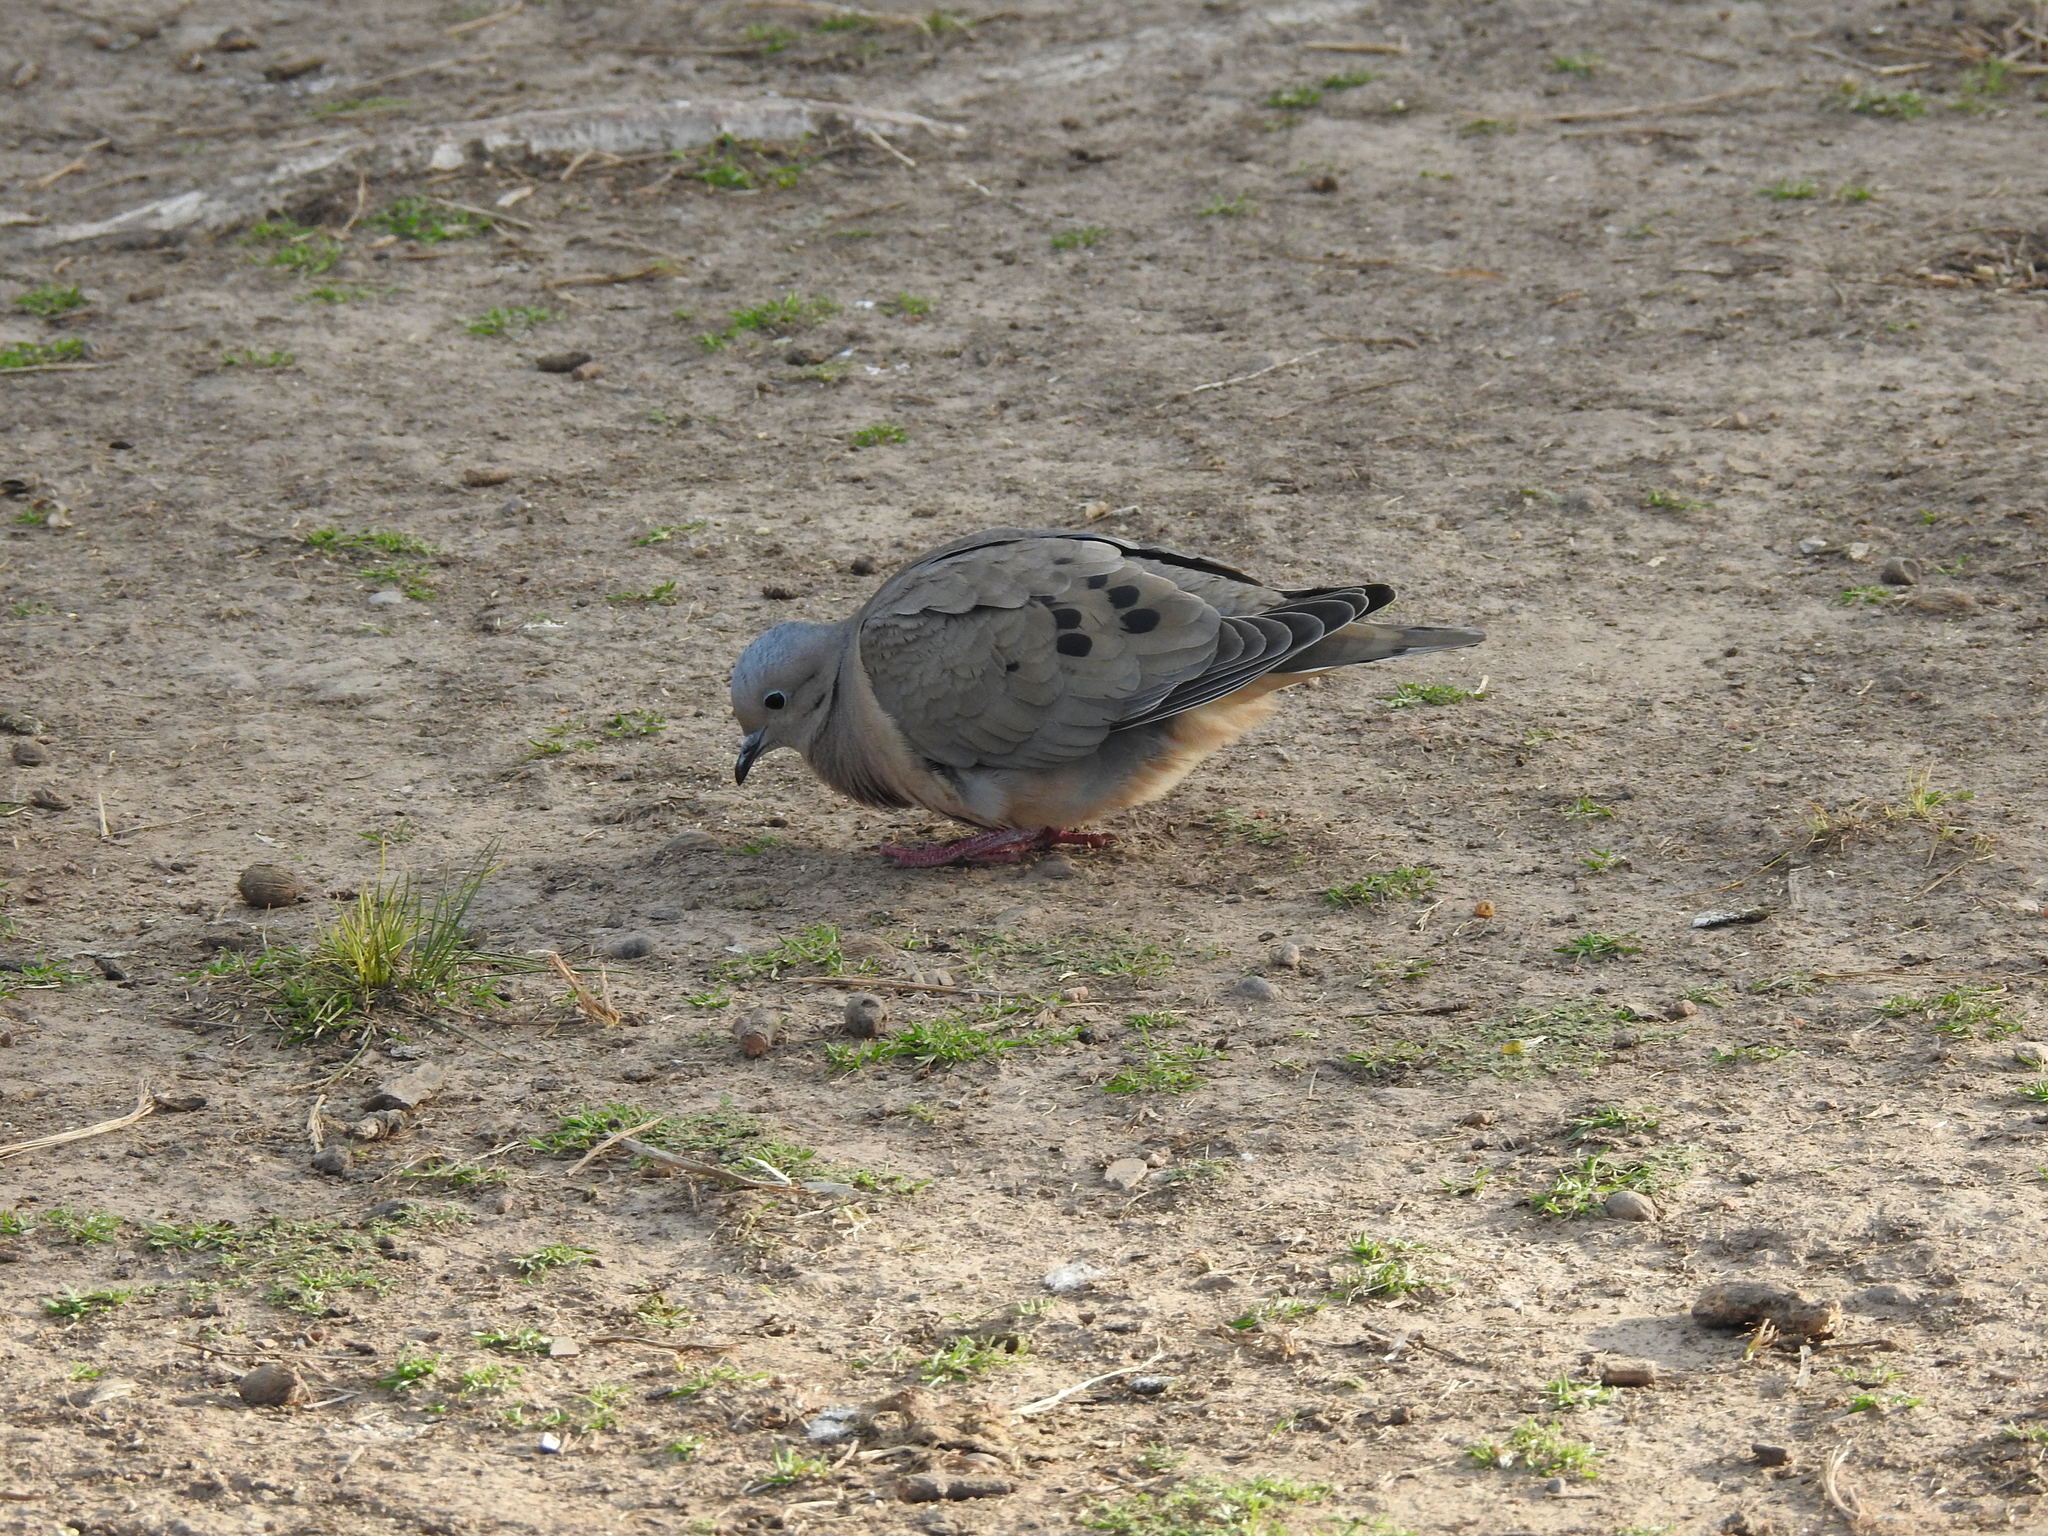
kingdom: Animalia
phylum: Chordata
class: Aves
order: Columbiformes
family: Columbidae
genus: Zenaida
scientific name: Zenaida auriculata
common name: Eared dove
